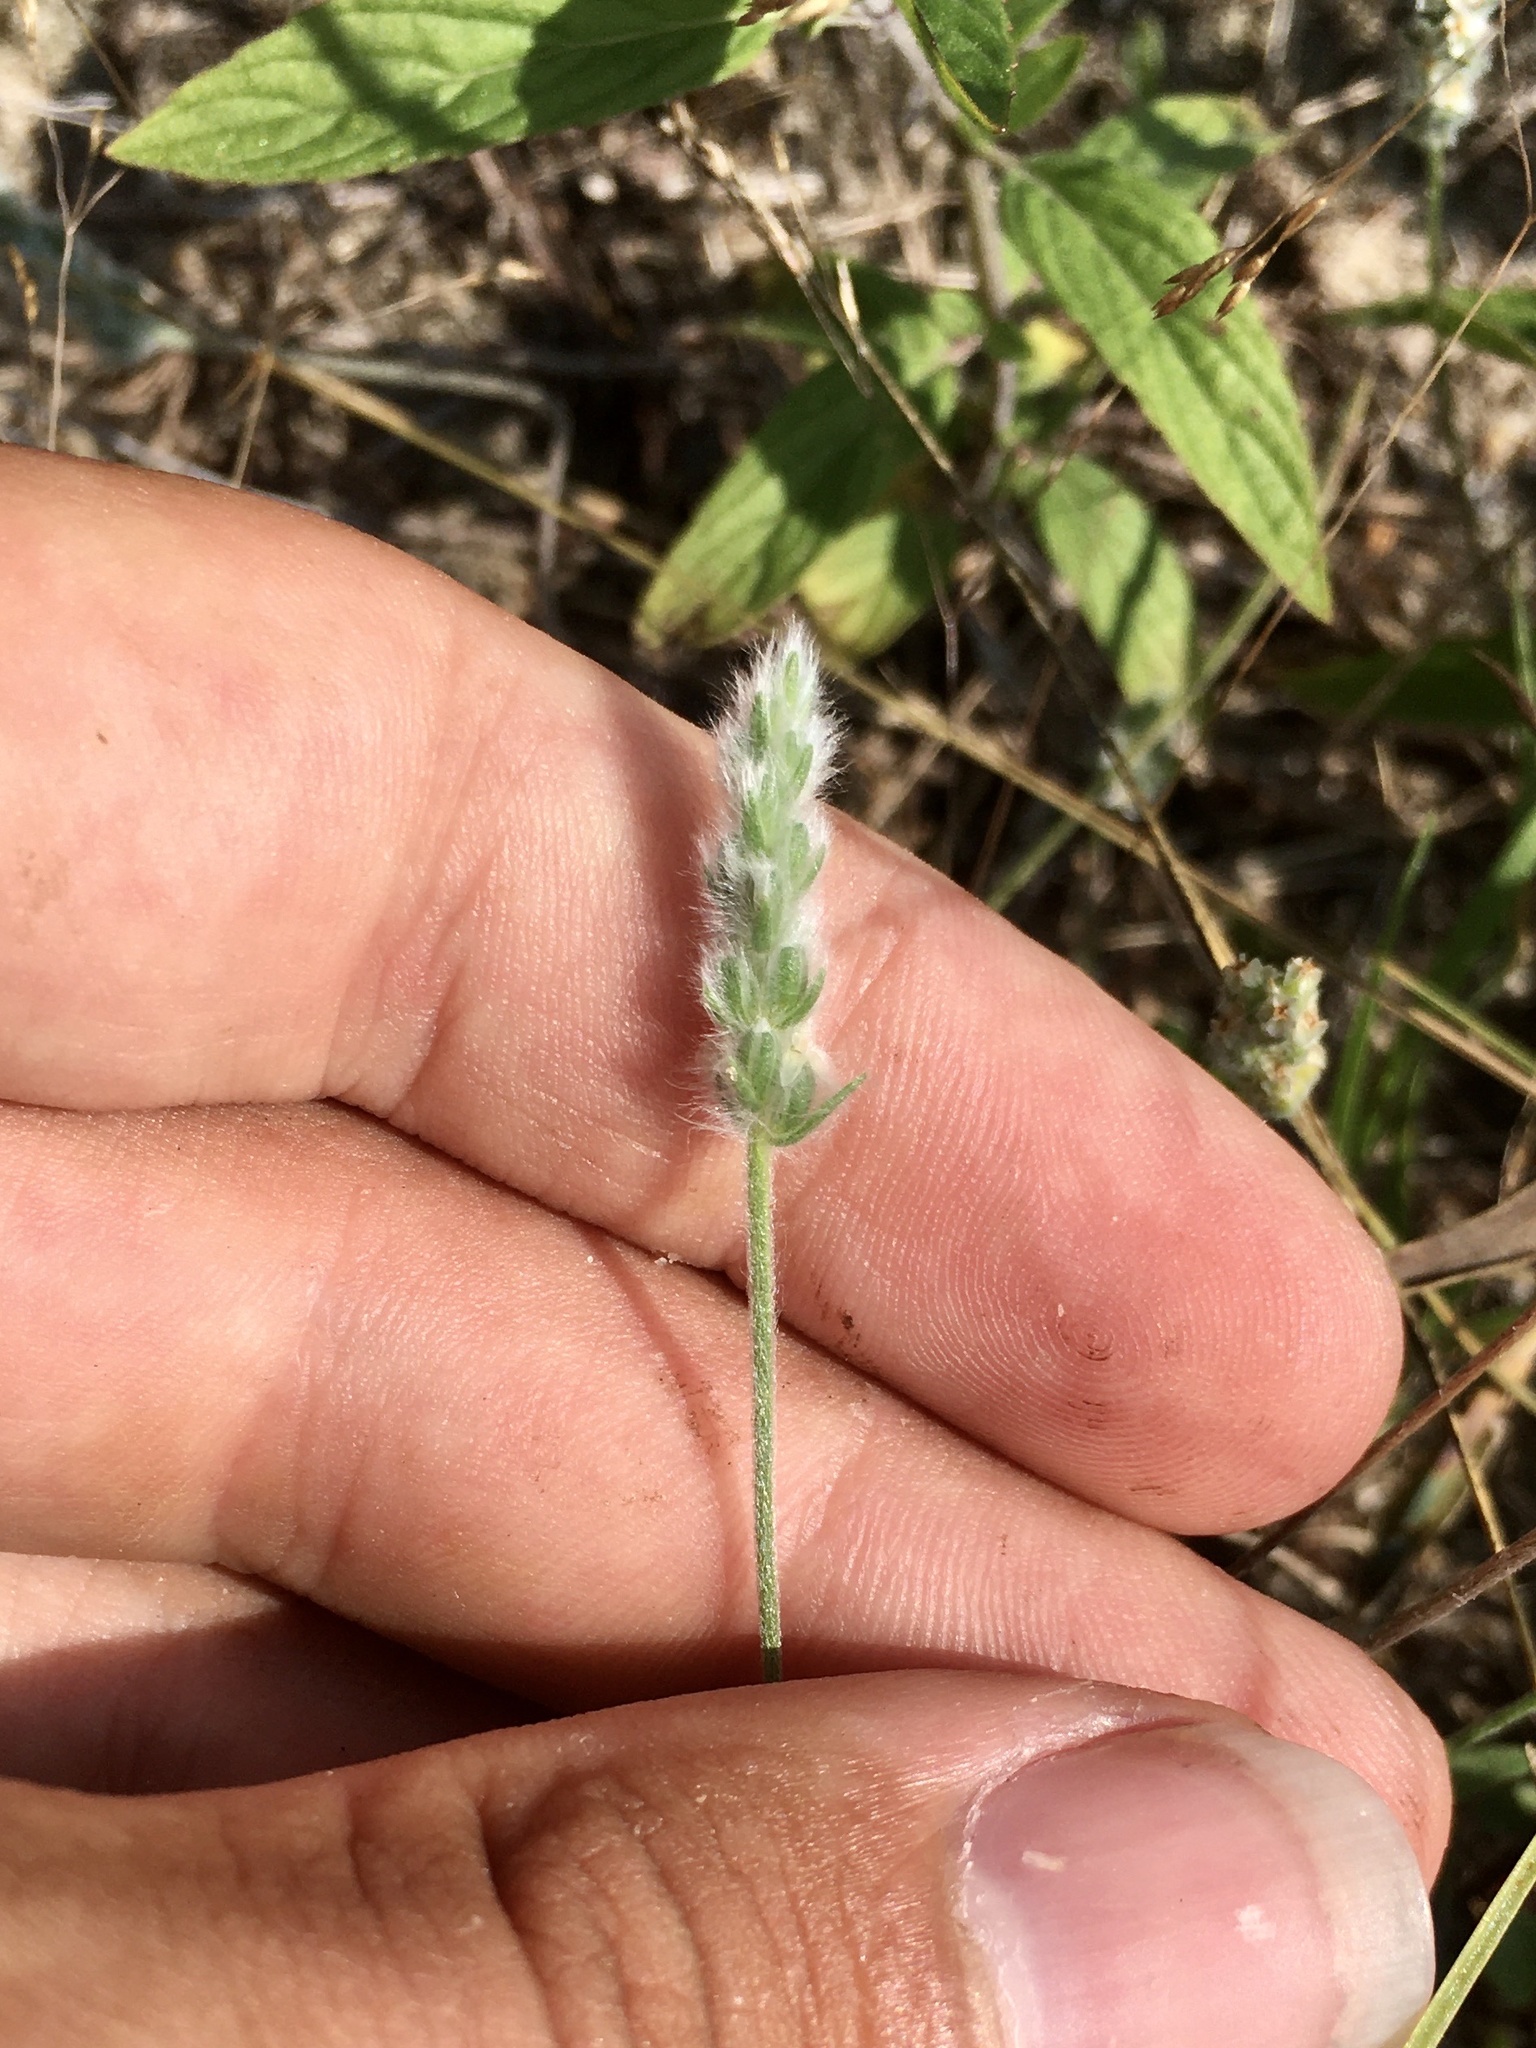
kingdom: Plantae
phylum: Tracheophyta
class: Magnoliopsida
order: Lamiales
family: Plantaginaceae
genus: Plantago
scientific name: Plantago patagonica
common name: Patagonia indian-wheat
